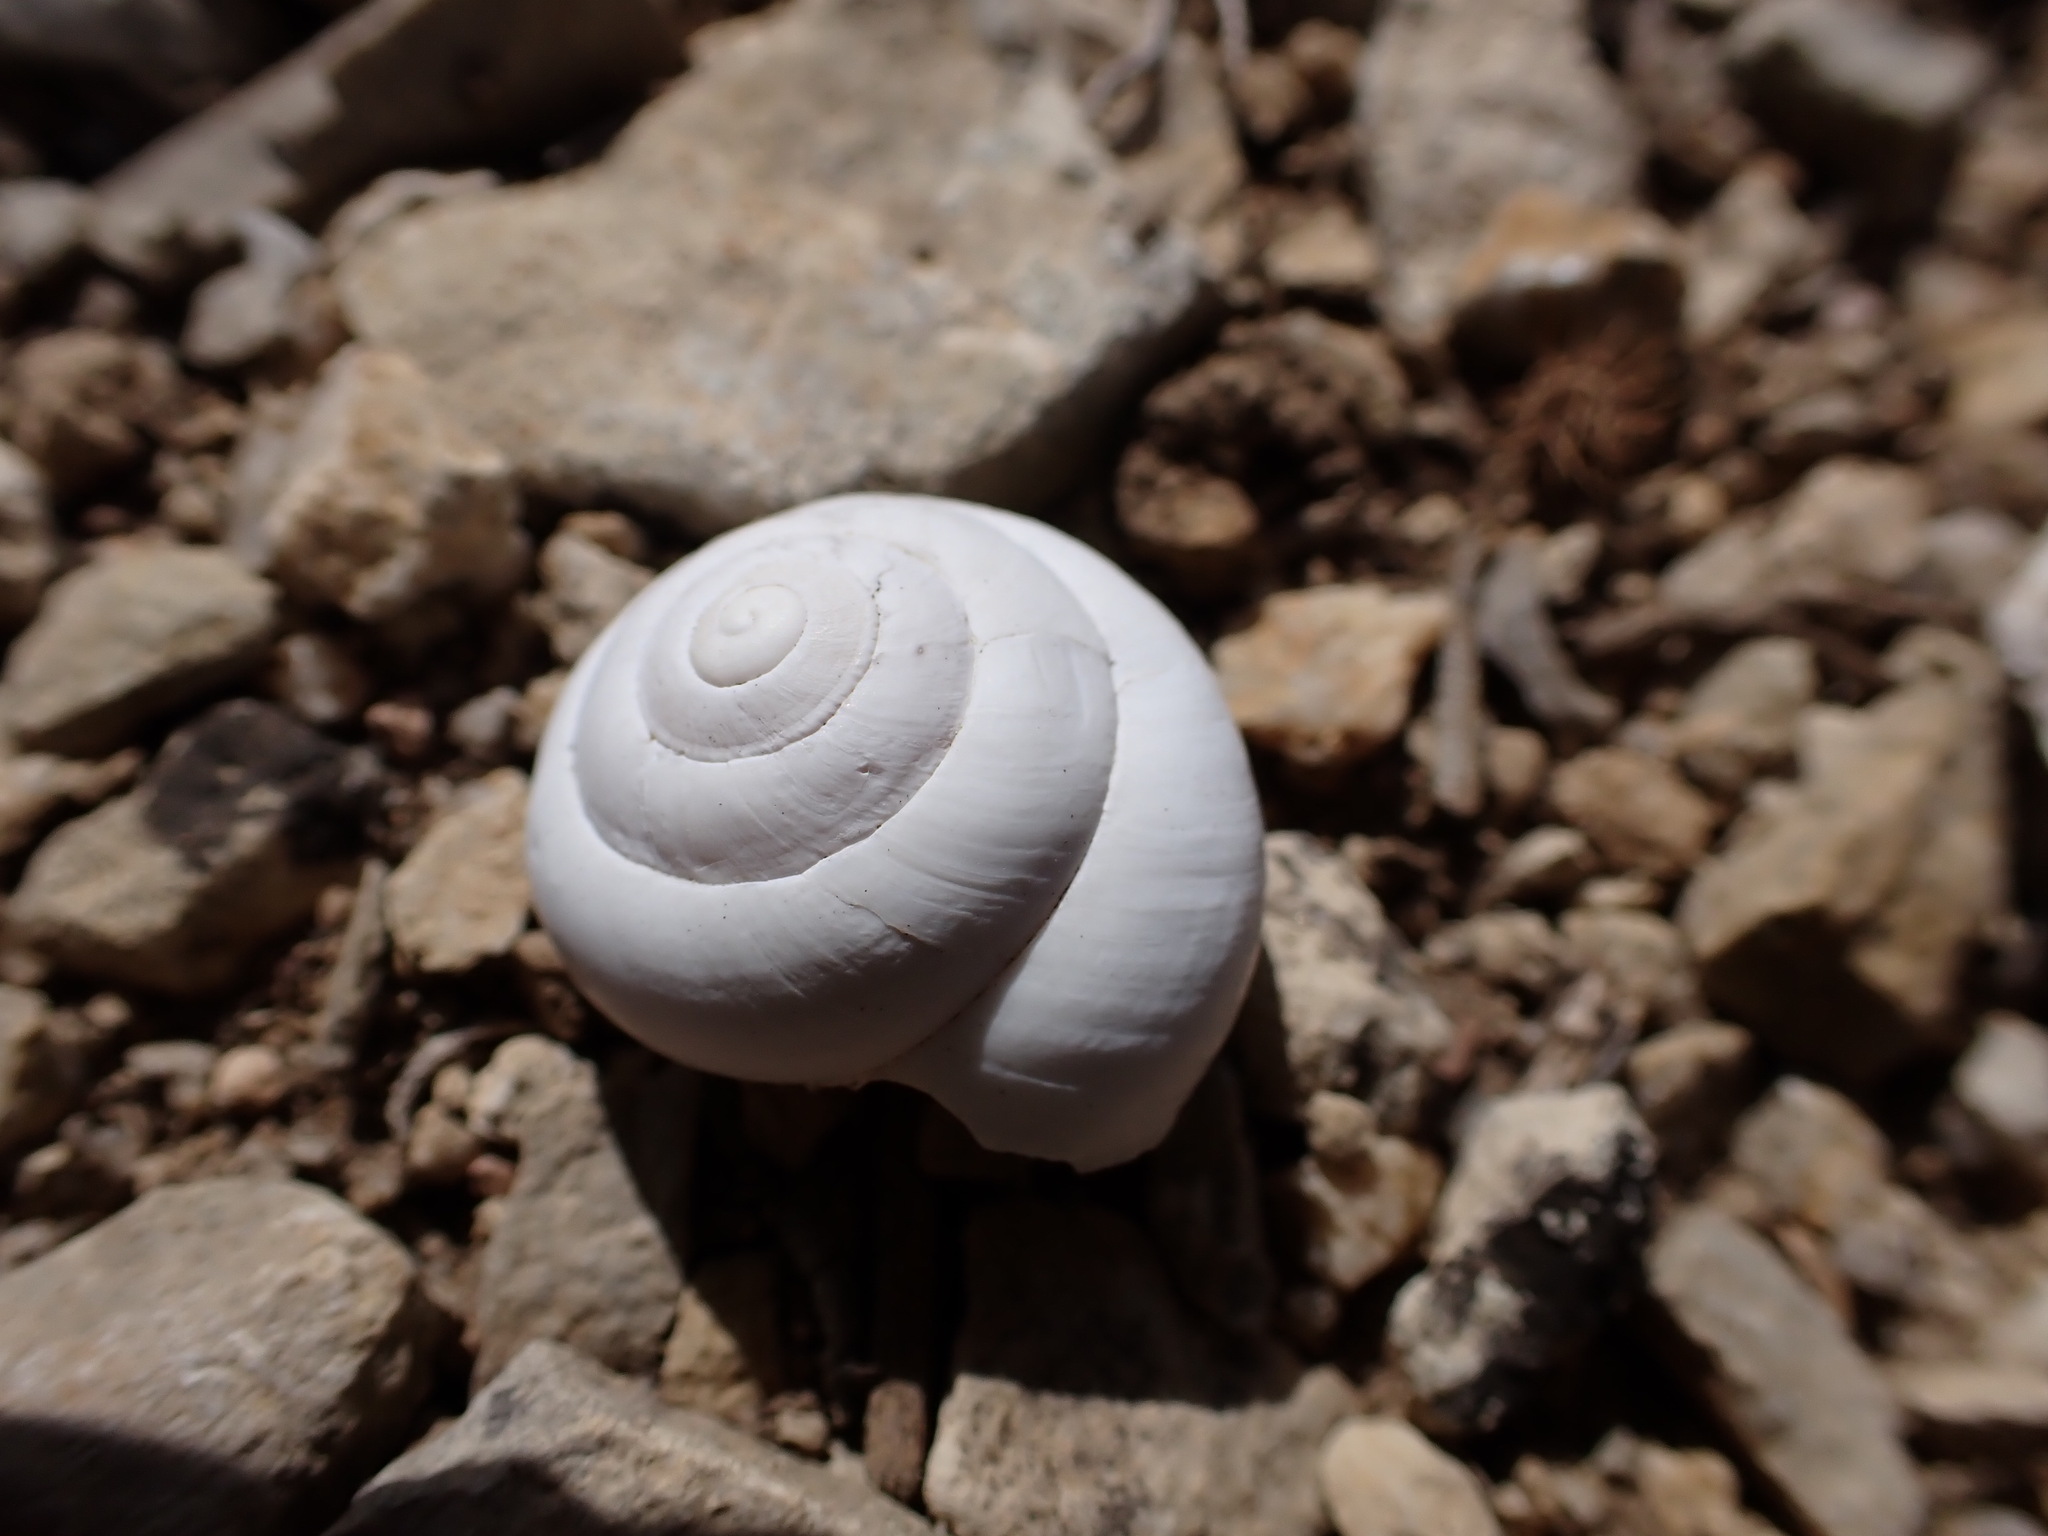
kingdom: Animalia
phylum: Mollusca
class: Gastropoda
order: Stylommatophora
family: Sphincterochilidae
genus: Sphincterochila
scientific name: Sphincterochila candidissima
